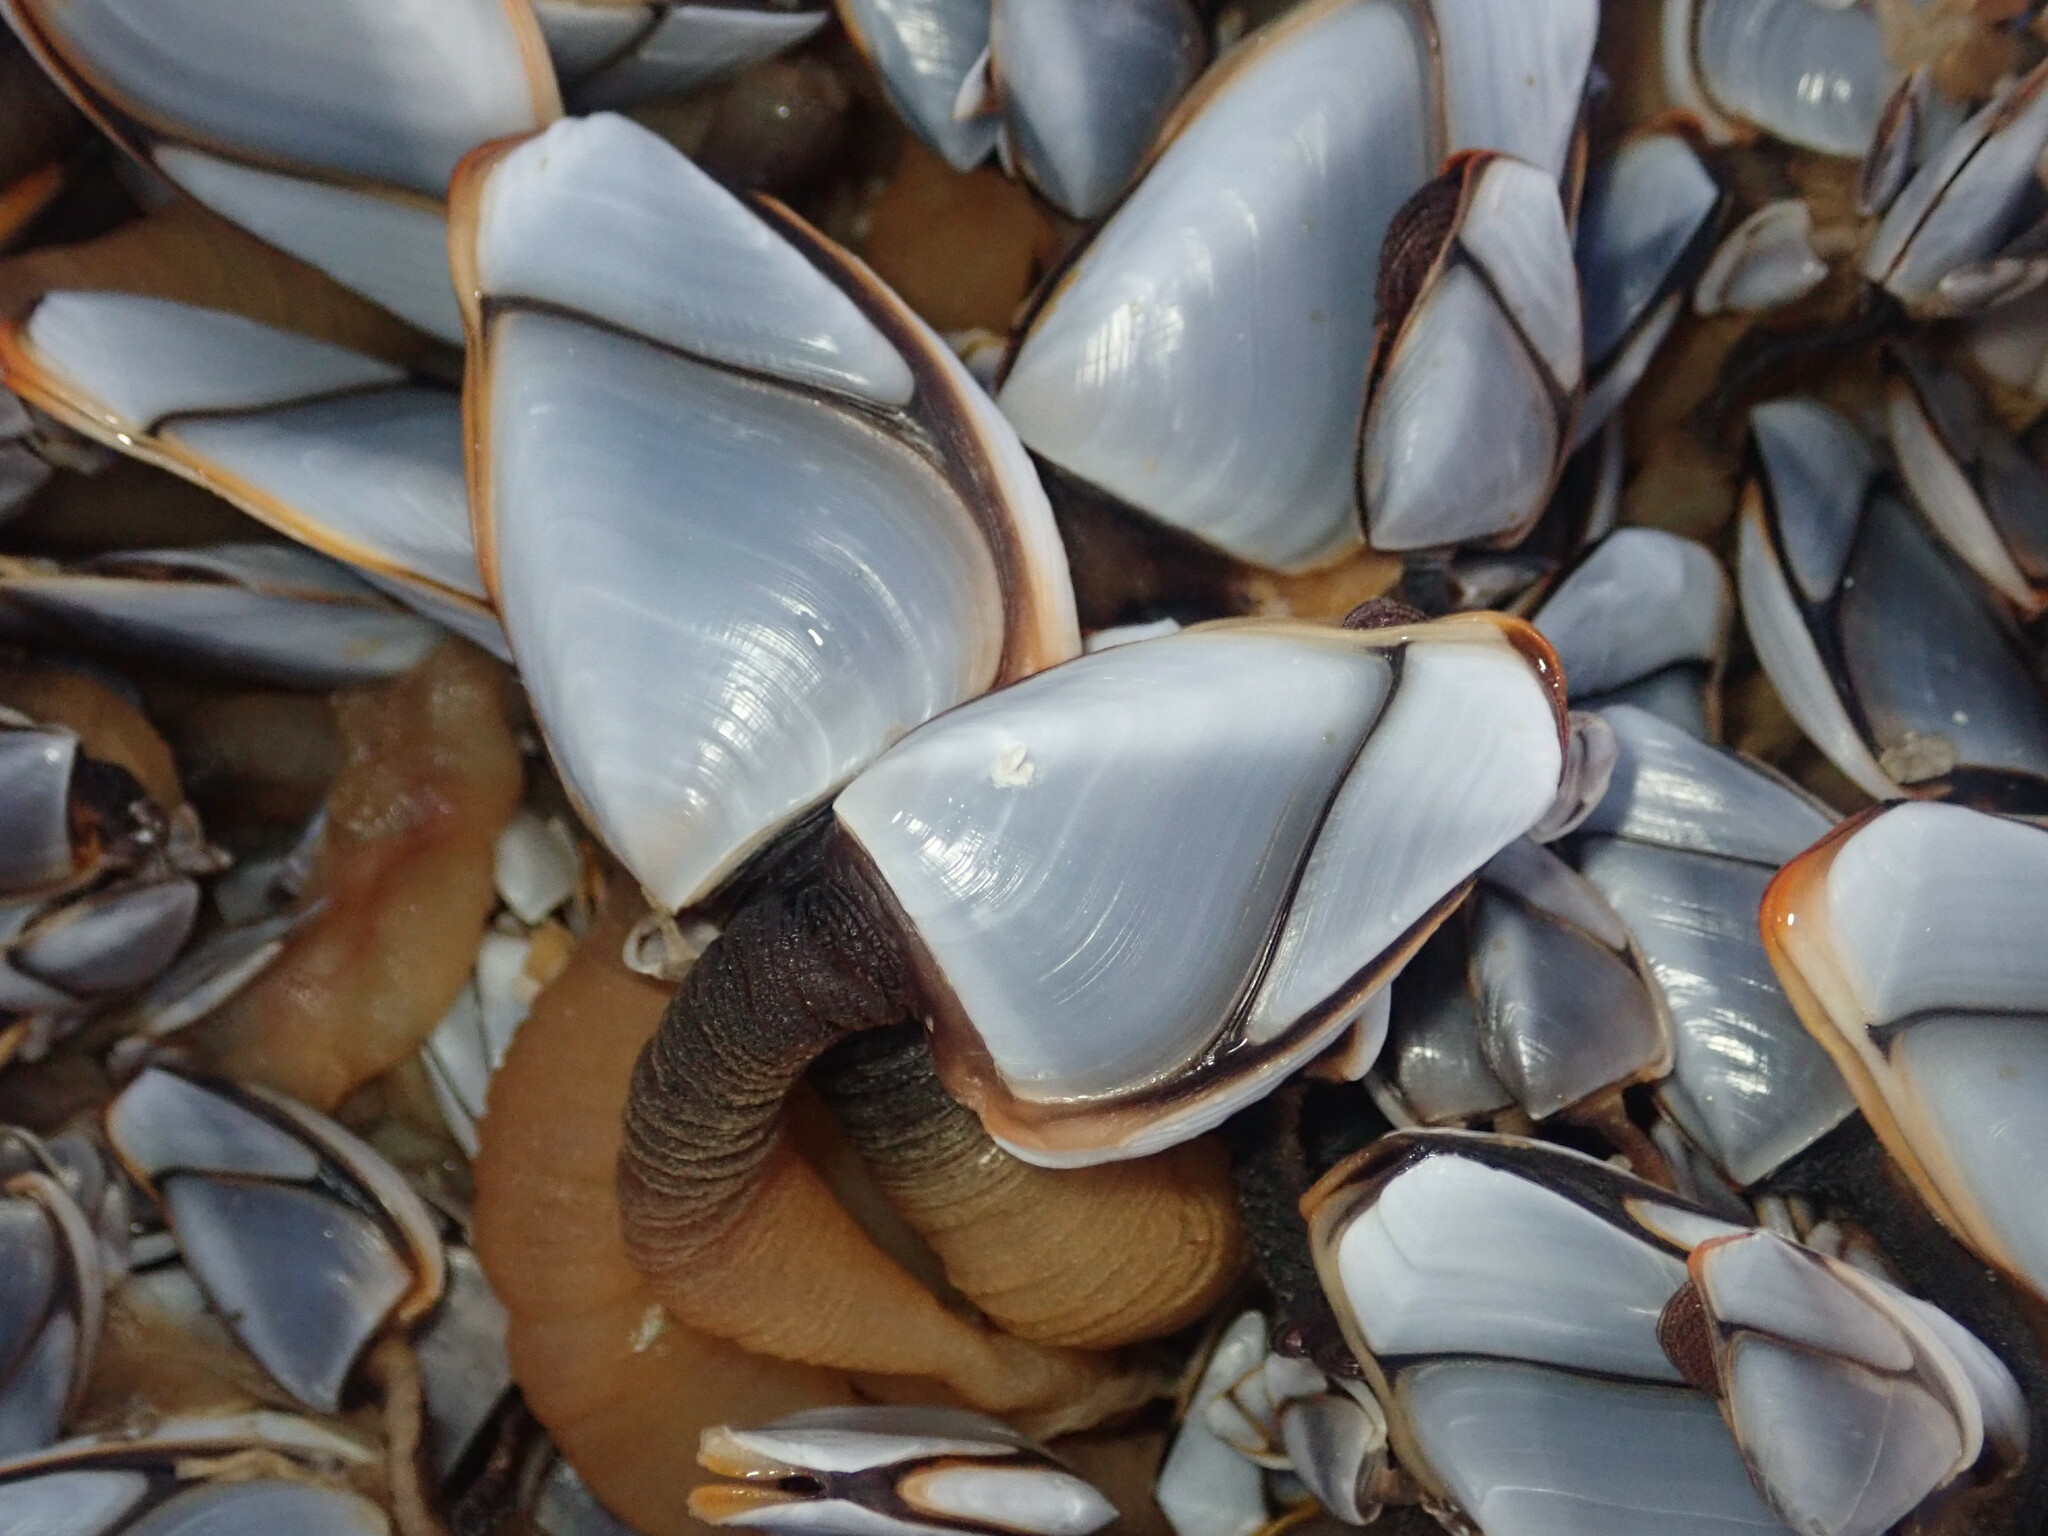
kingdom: Animalia
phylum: Arthropoda
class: Maxillopoda
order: Pedunculata
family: Lepadidae
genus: Lepas
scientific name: Lepas anatifera
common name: Common goose barnacle
